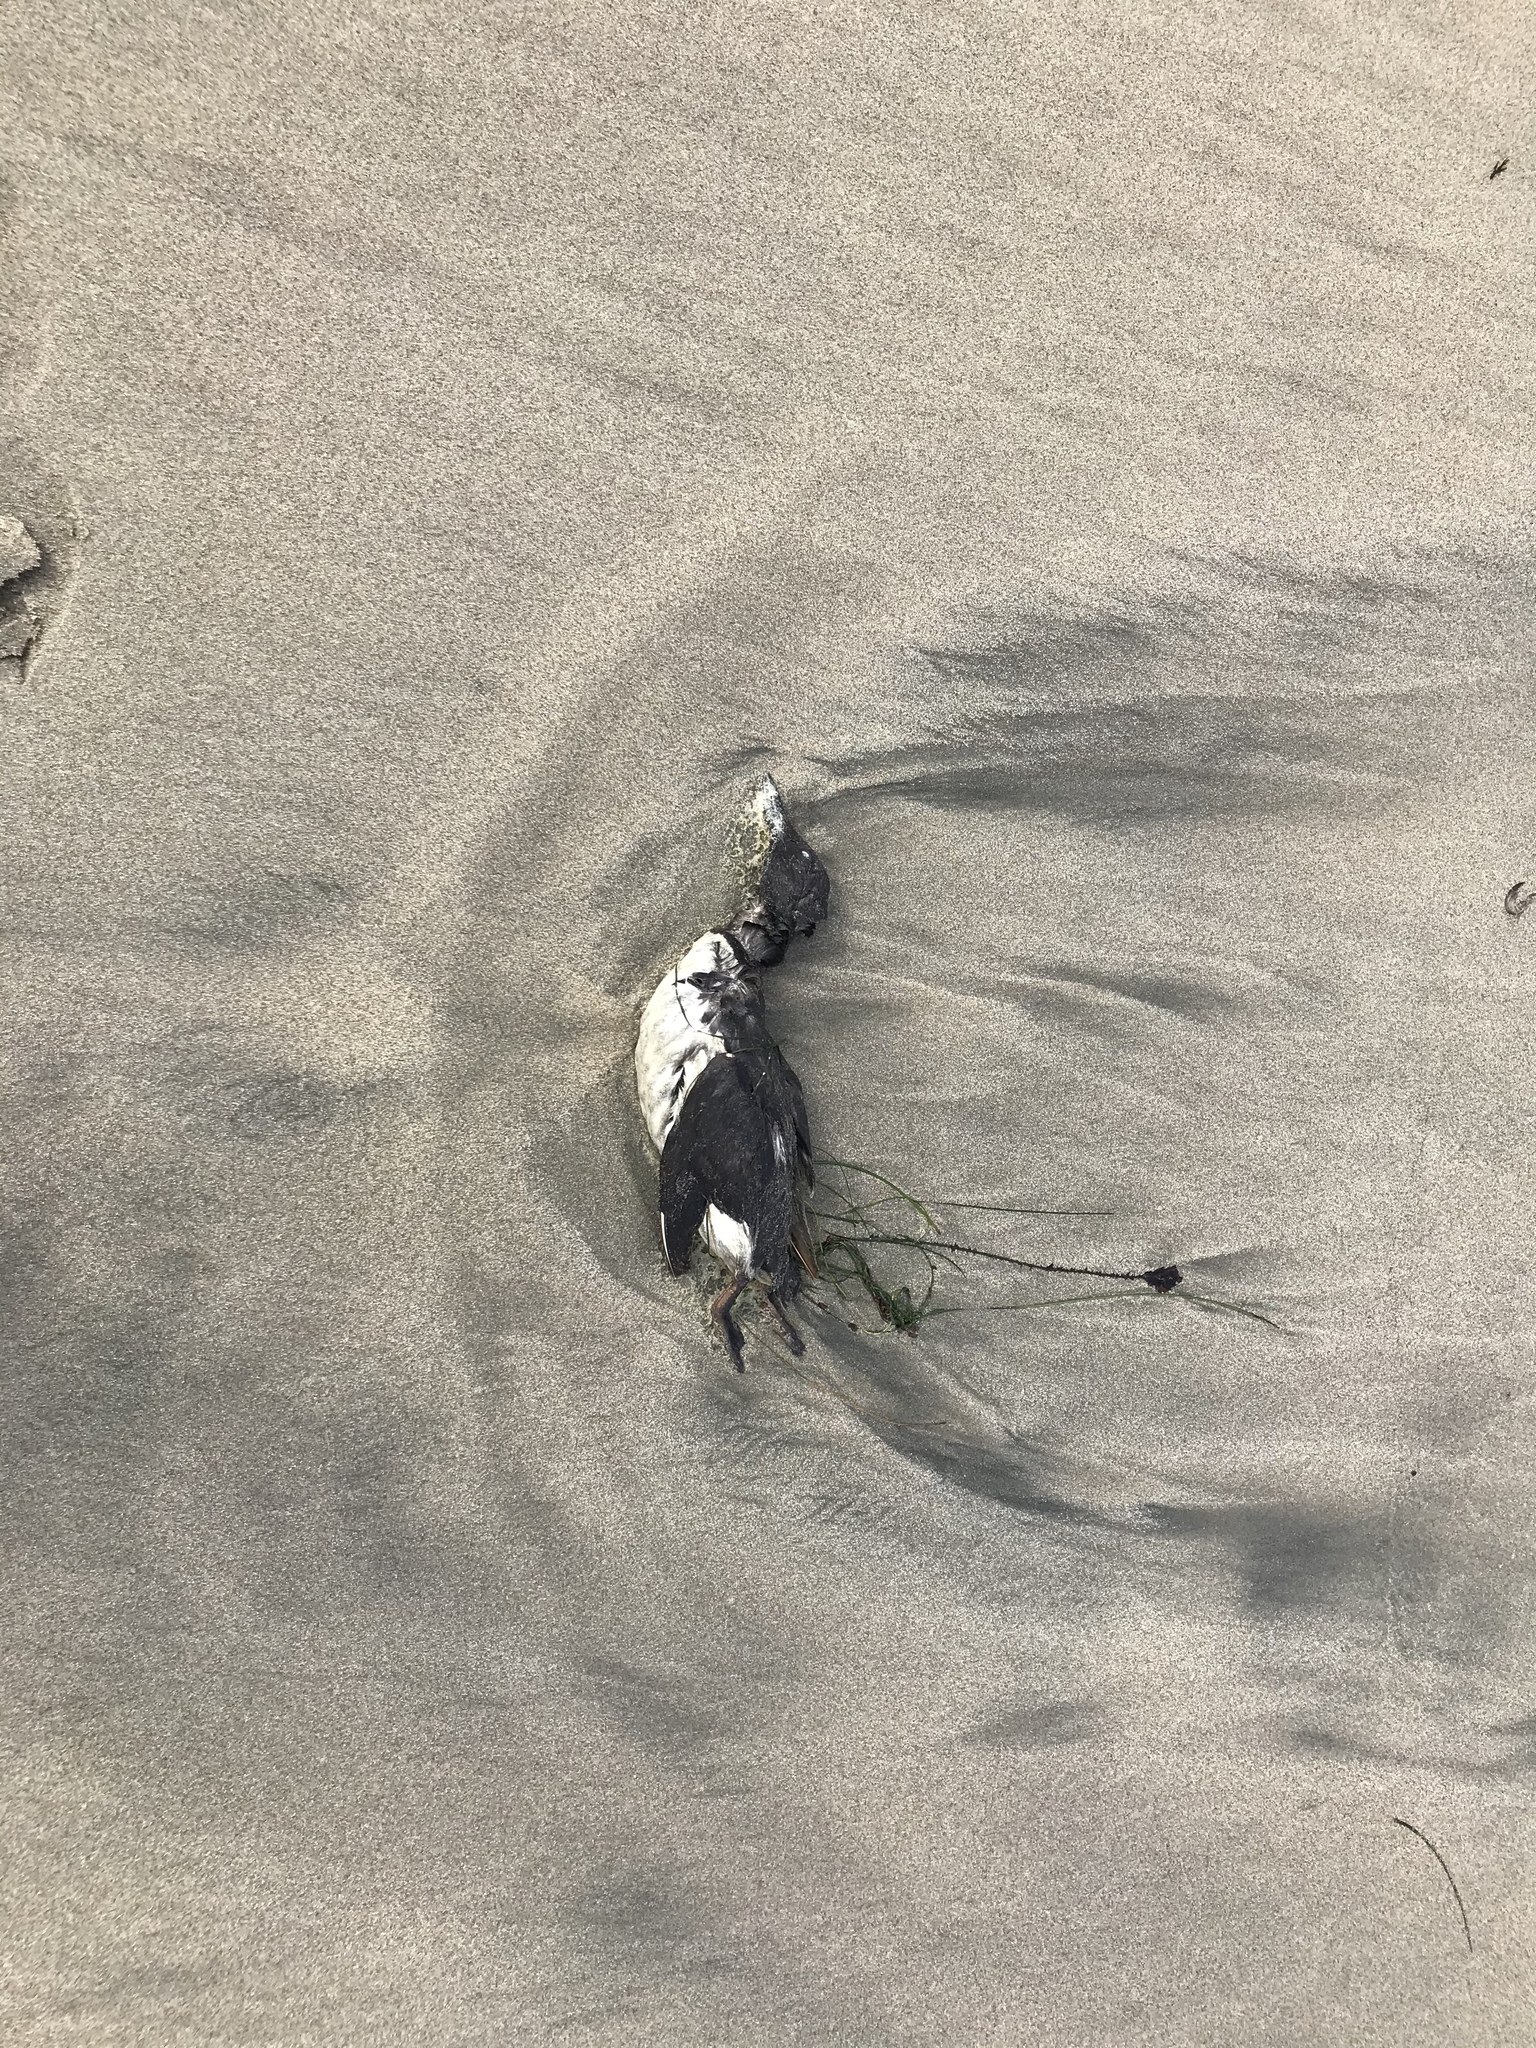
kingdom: Animalia
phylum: Chordata
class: Aves
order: Charadriiformes
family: Alcidae
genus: Uria
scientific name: Uria aalge
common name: Common murre
